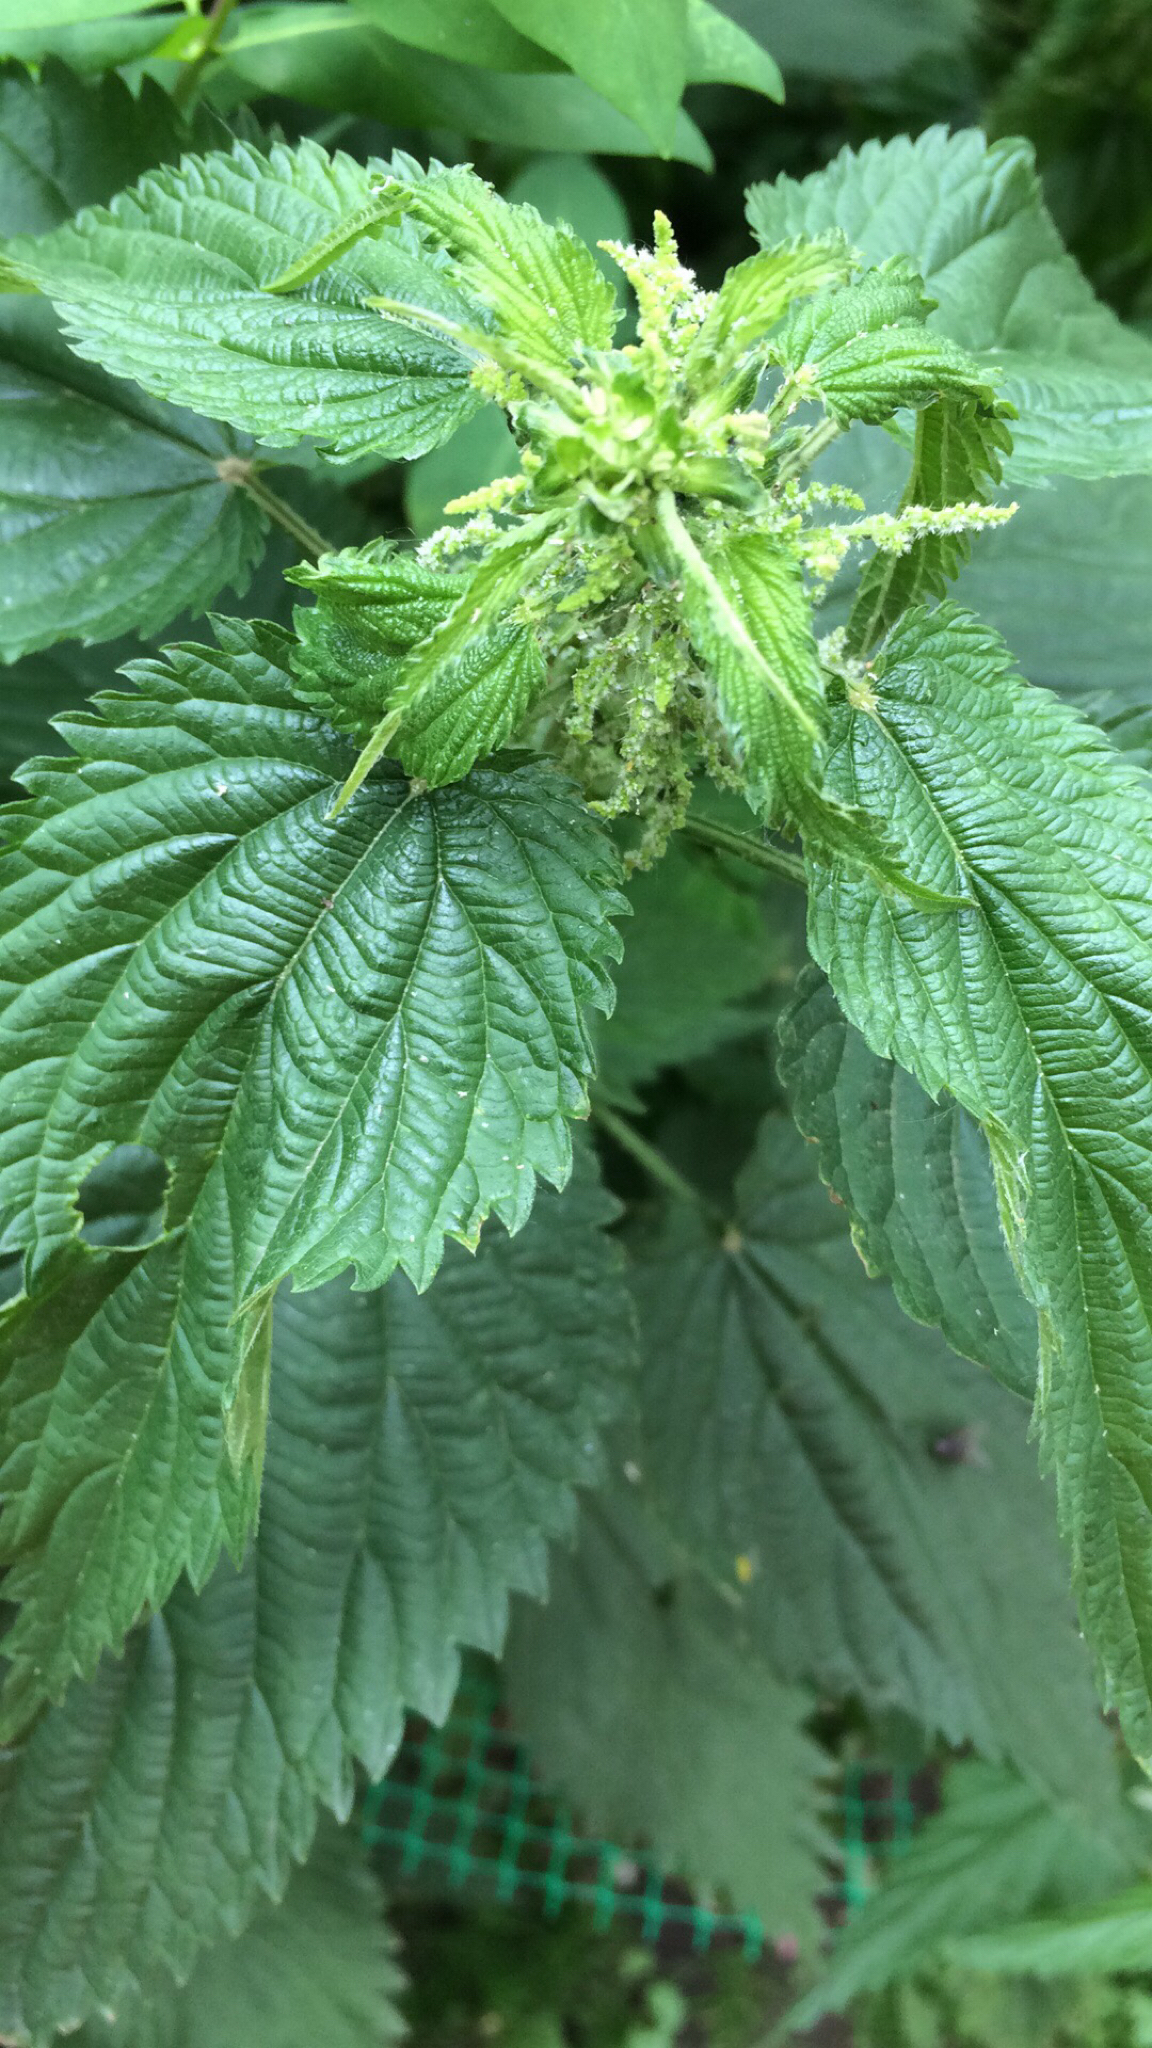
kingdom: Plantae
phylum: Tracheophyta
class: Magnoliopsida
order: Rosales
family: Urticaceae
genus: Urtica
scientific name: Urtica dioica
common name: Common nettle
